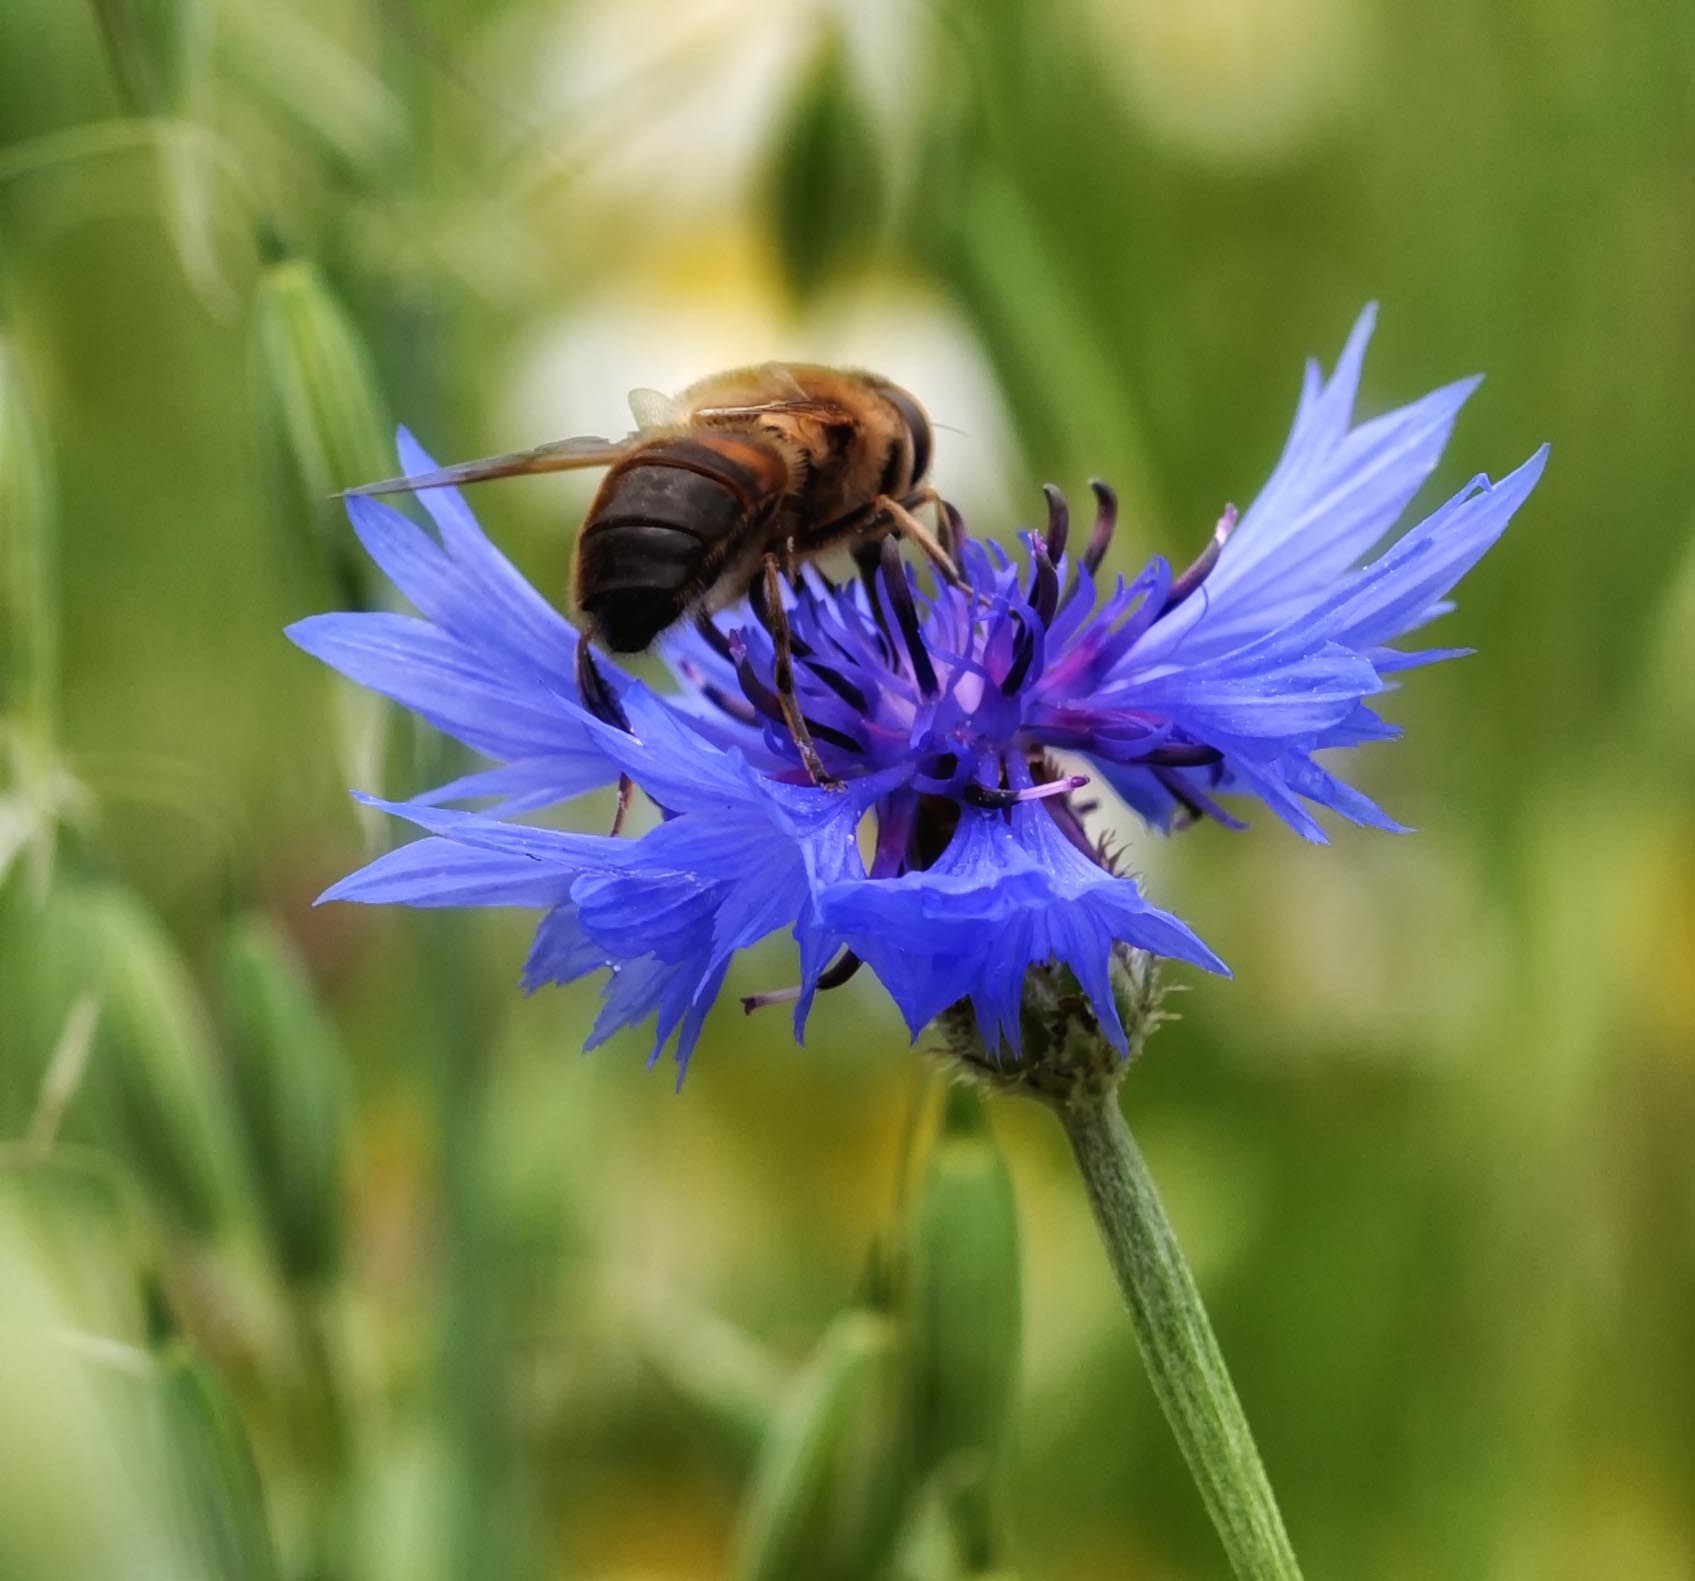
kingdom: Animalia
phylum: Arthropoda
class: Insecta
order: Diptera
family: Syrphidae
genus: Eristalis
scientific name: Eristalis tenax
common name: Drone fly
